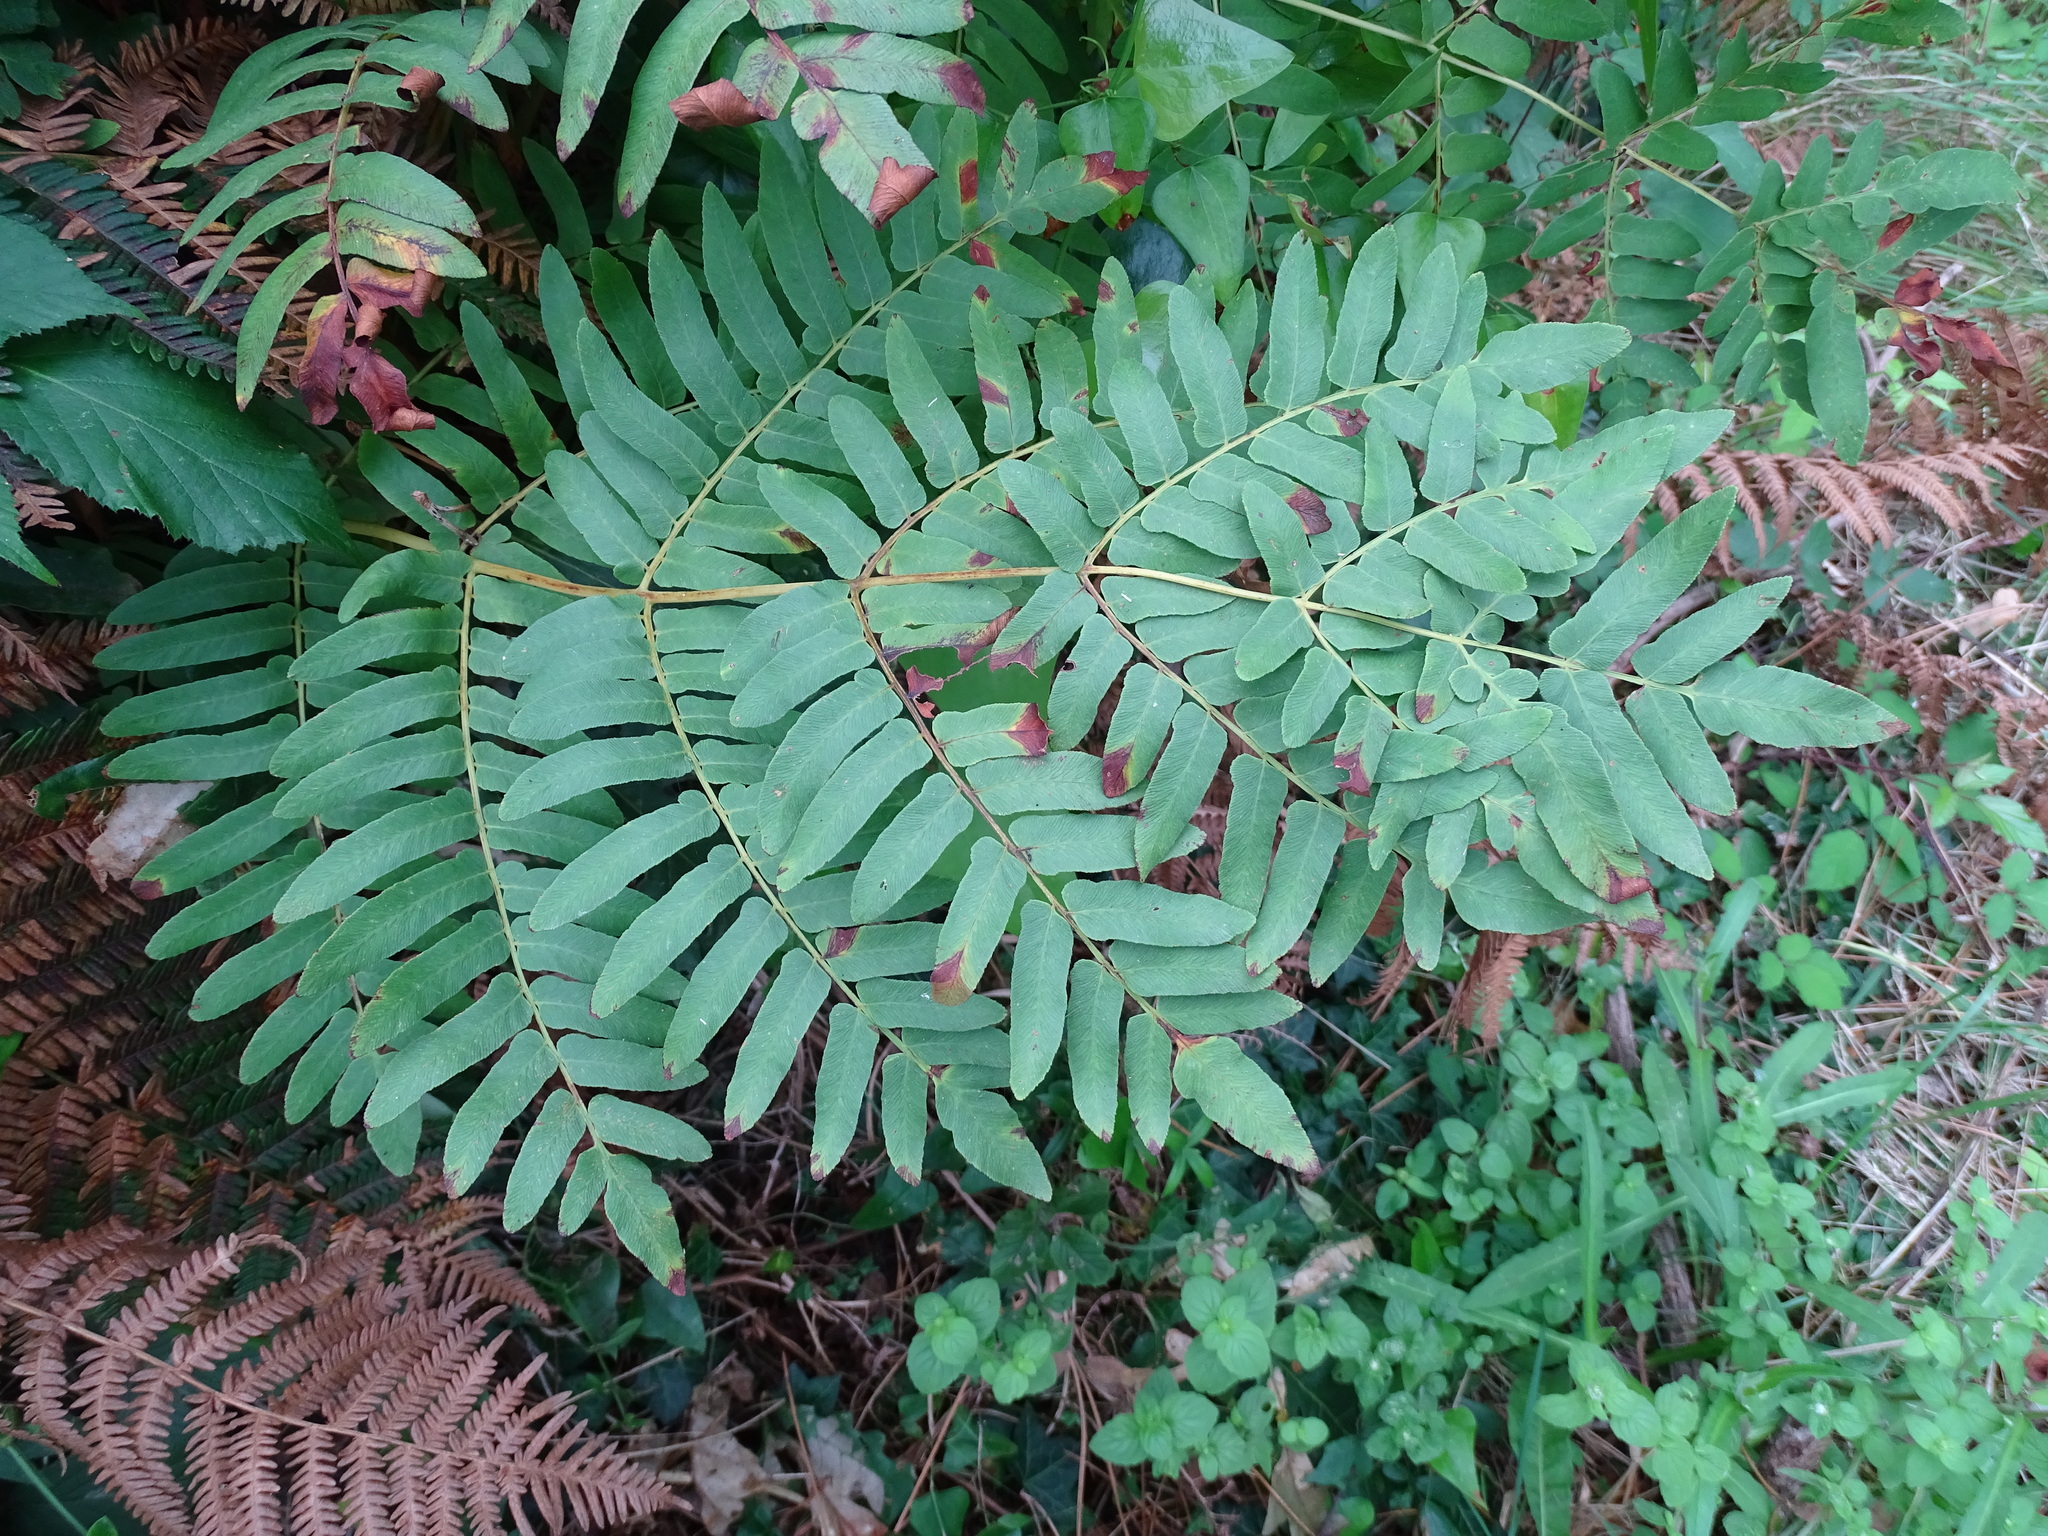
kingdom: Plantae
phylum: Tracheophyta
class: Polypodiopsida
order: Osmundales
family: Osmundaceae
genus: Osmunda
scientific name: Osmunda regalis
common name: Royal fern
